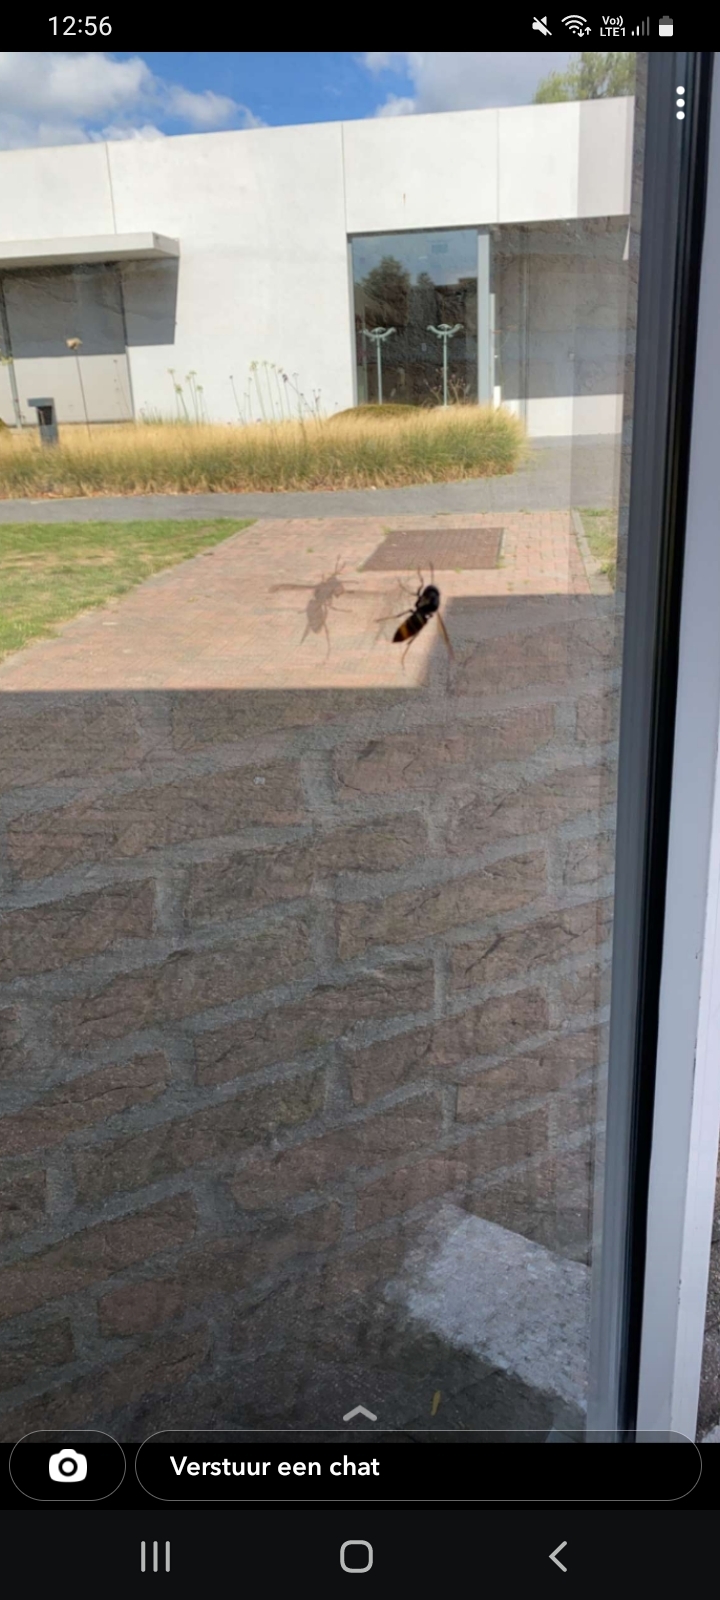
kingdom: Animalia
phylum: Arthropoda
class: Insecta
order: Hymenoptera
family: Vespidae
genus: Vespa
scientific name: Vespa velutina
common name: Asian hornet
